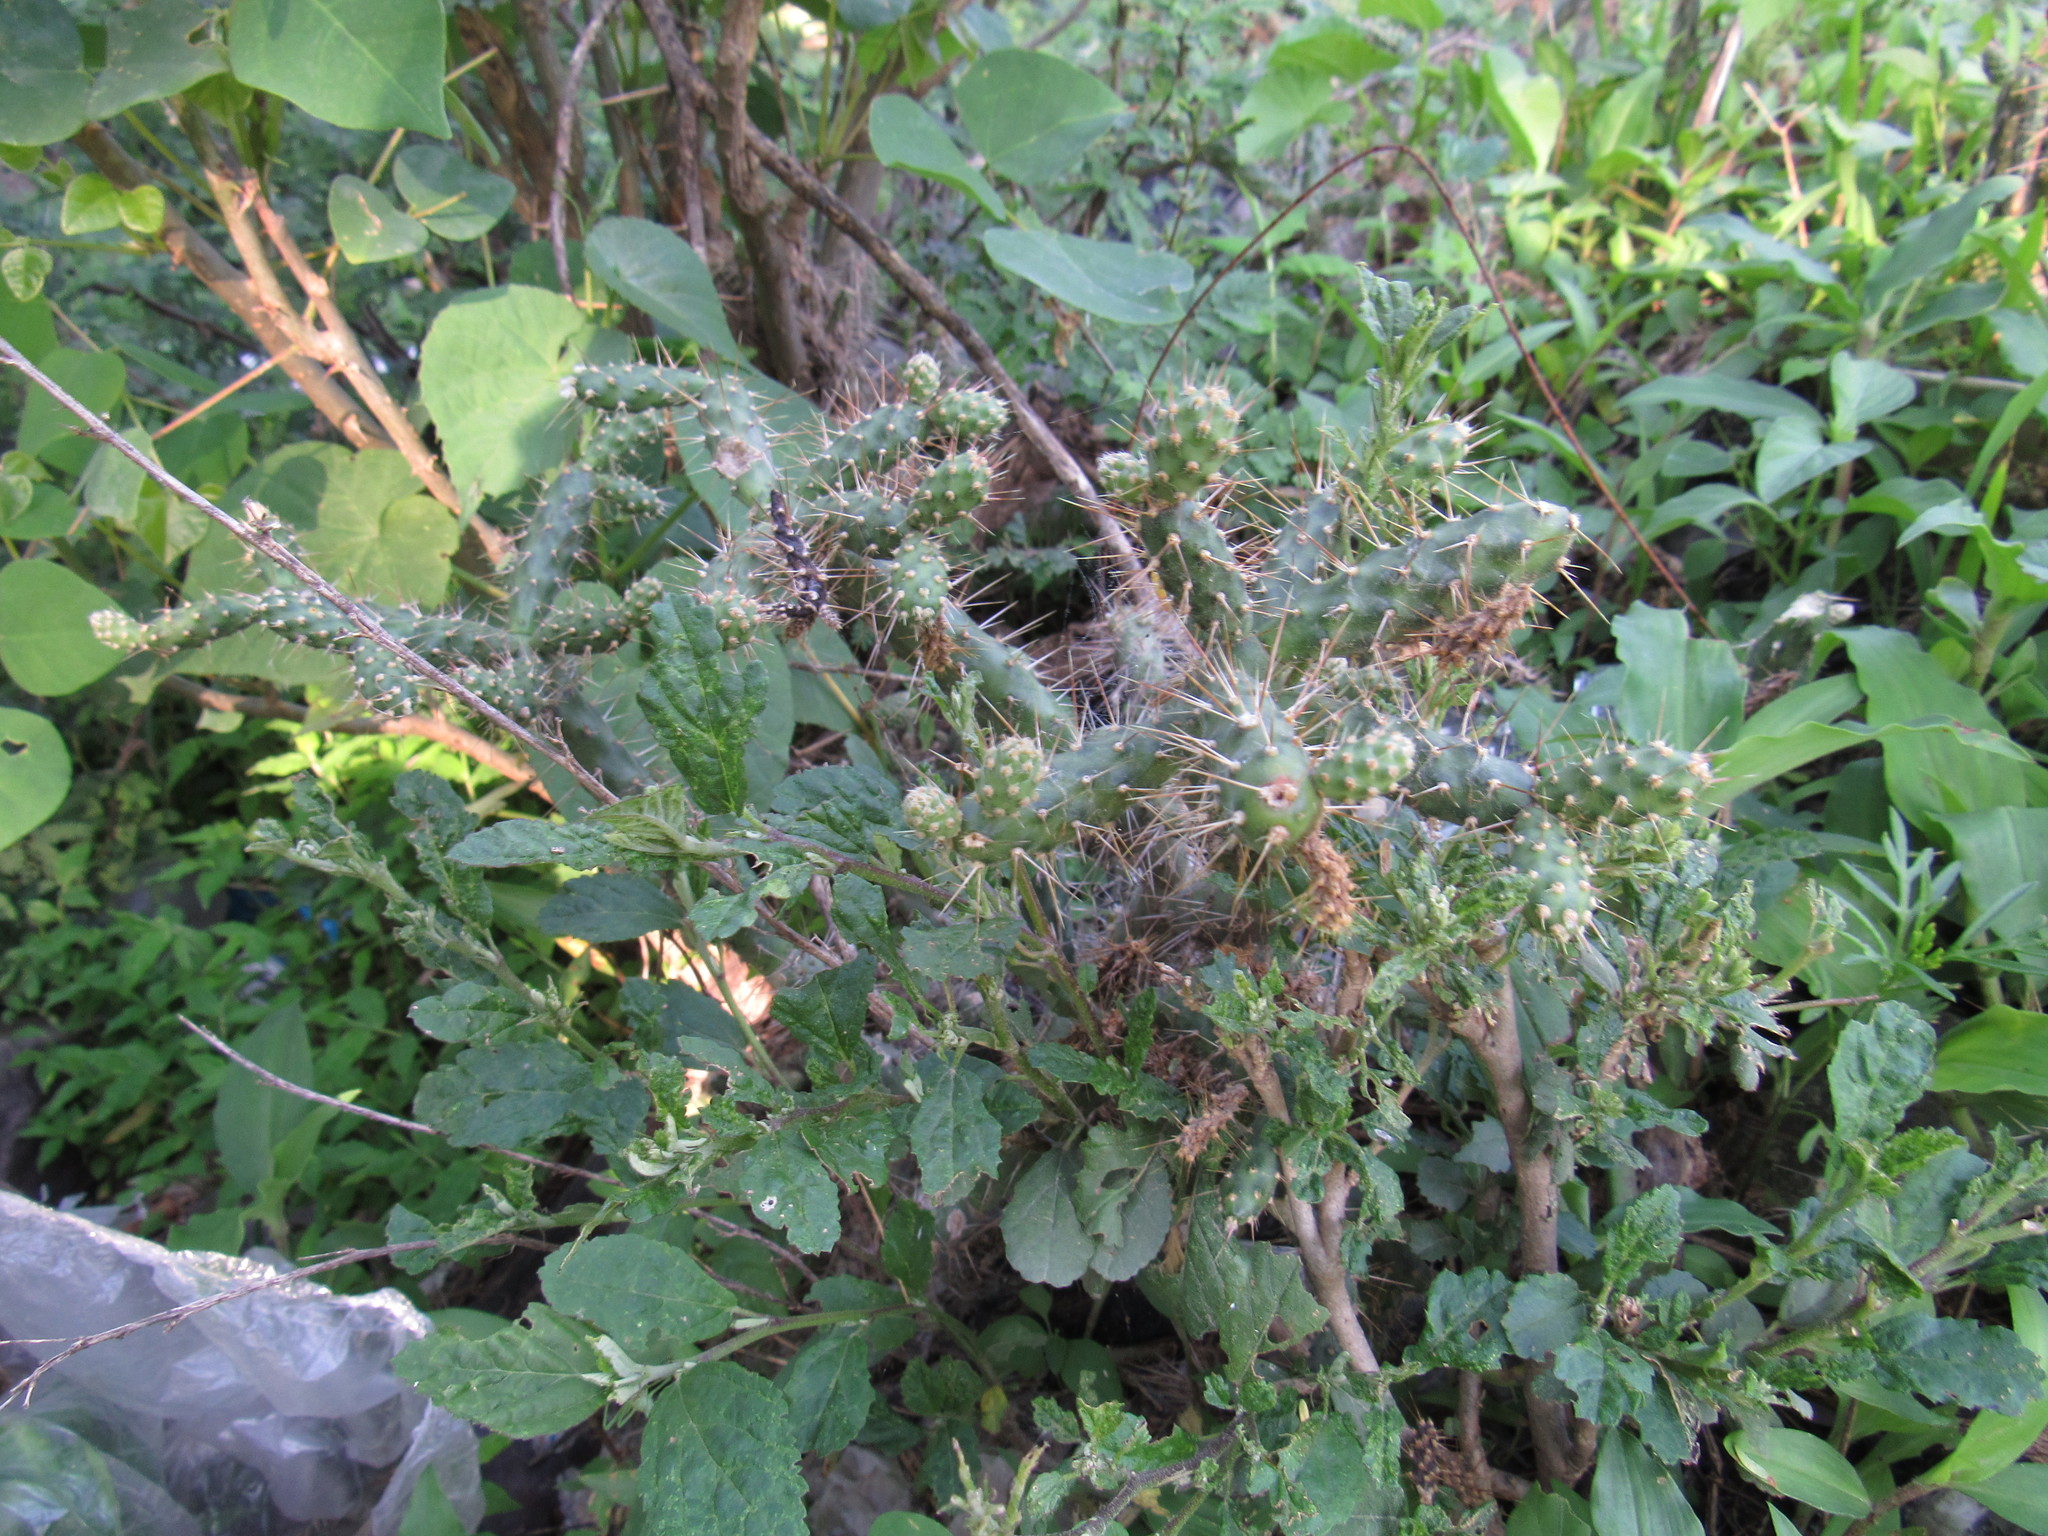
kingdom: Plantae
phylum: Tracheophyta
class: Magnoliopsida
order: Caryophyllales
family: Cactaceae
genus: Opuntia
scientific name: Opuntia pubescens
